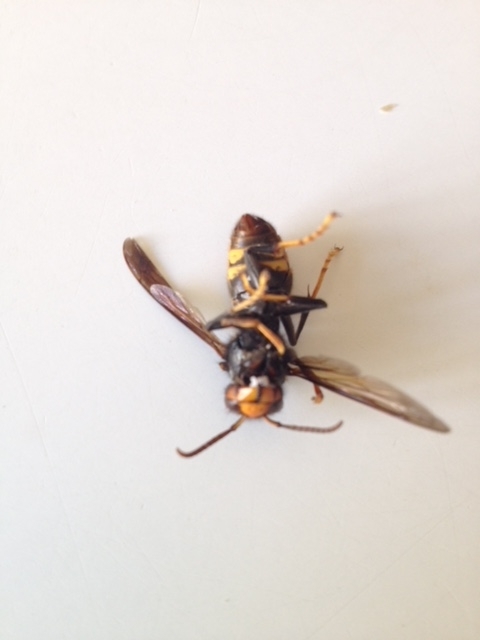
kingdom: Animalia
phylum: Arthropoda
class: Insecta
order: Hymenoptera
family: Vespidae
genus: Vespa
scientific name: Vespa velutina
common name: Asian hornet
